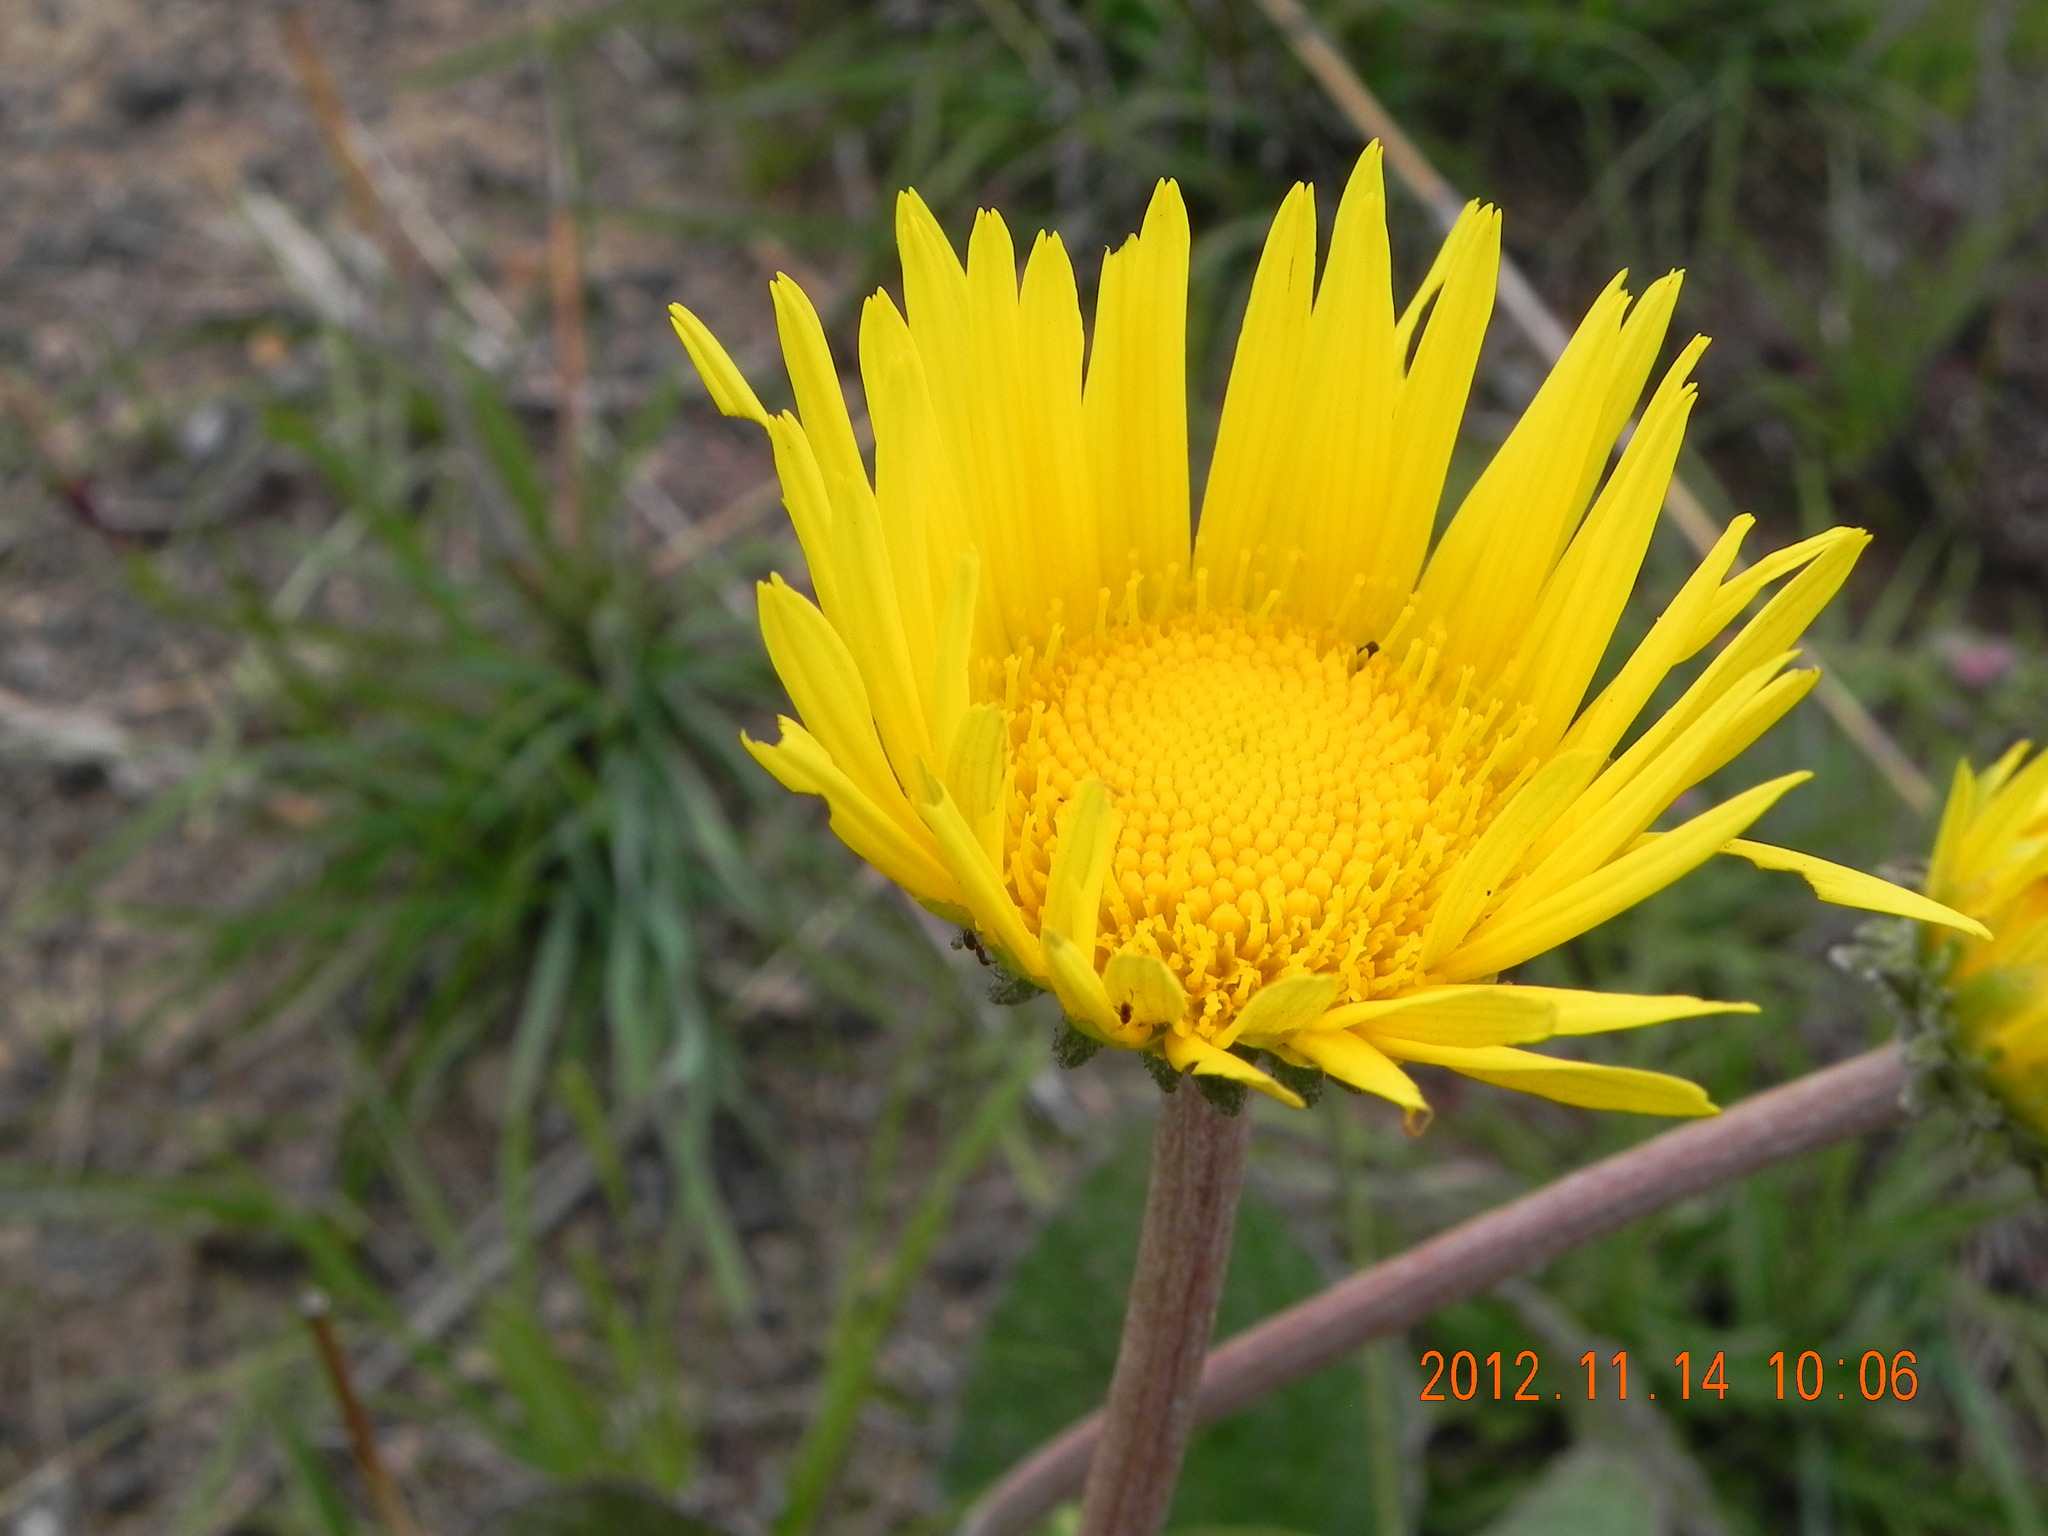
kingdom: Plantae
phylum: Tracheophyta
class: Magnoliopsida
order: Asterales
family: Asteraceae
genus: Haplocarpha
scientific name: Haplocarpha scaposa
